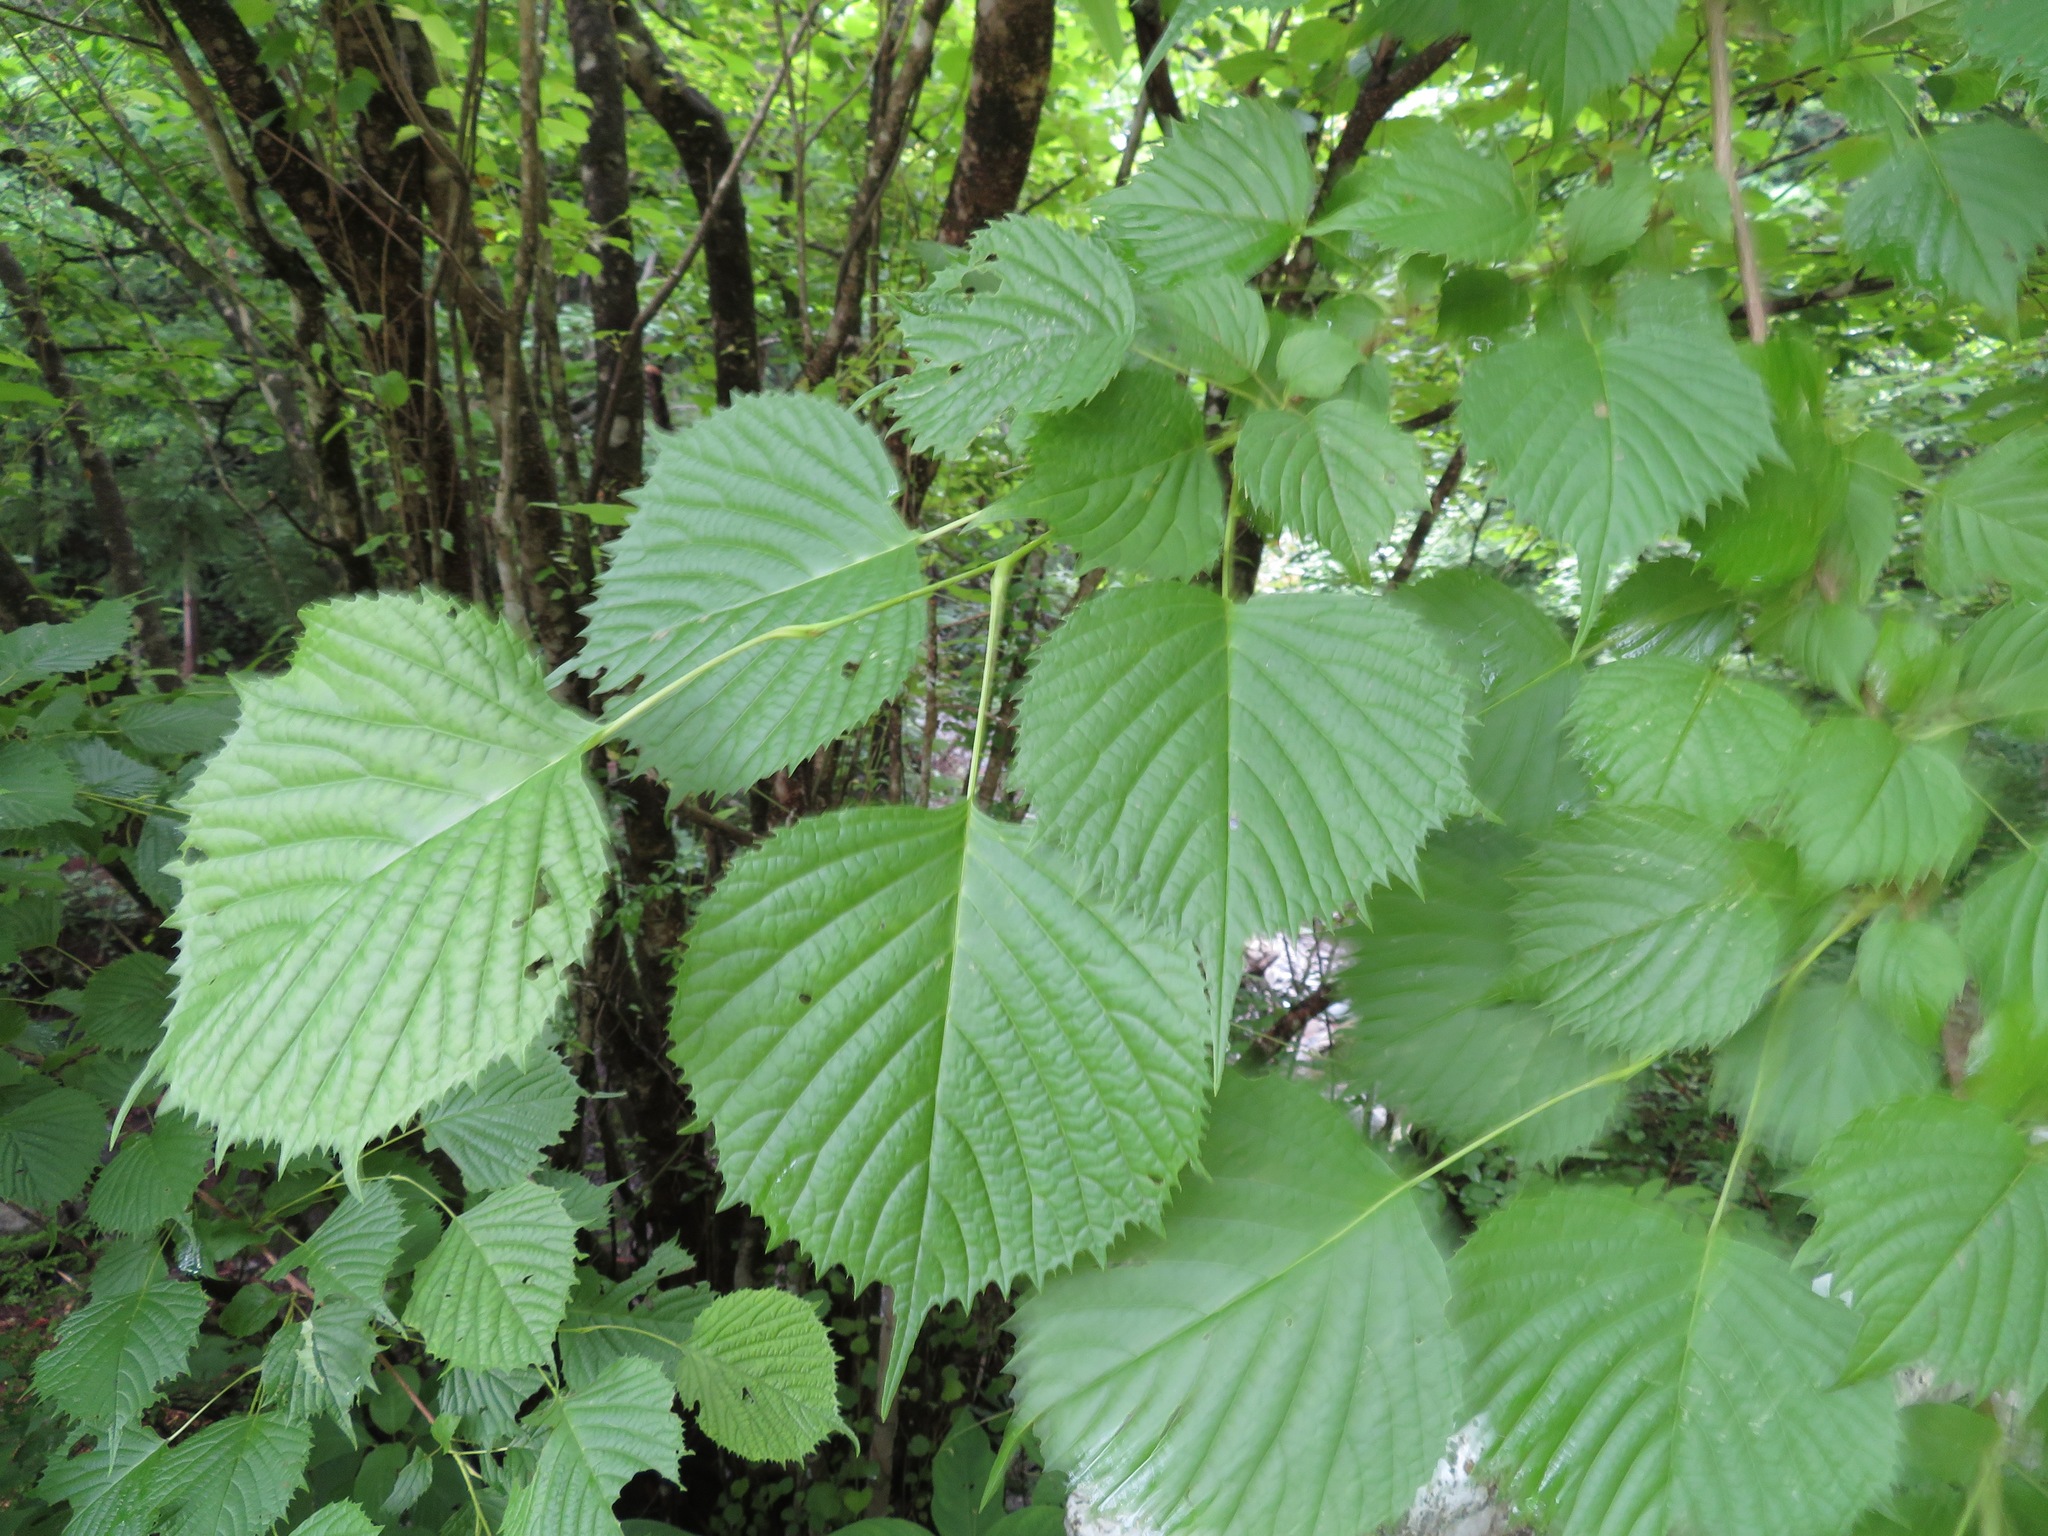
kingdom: Plantae
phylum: Tracheophyta
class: Magnoliopsida
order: Ranunculales
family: Eupteleaceae
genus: Euptelea
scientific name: Euptelea polyandra
